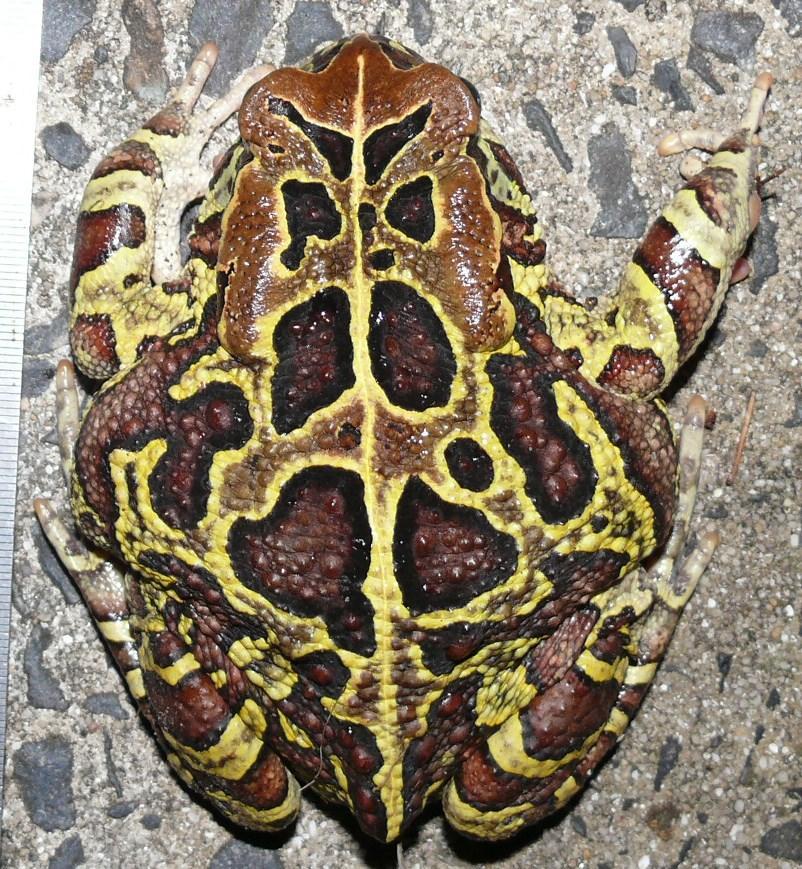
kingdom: Animalia
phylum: Chordata
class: Amphibia
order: Anura
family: Bufonidae
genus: Sclerophrys
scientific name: Sclerophrys pantherina
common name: Panther toad
